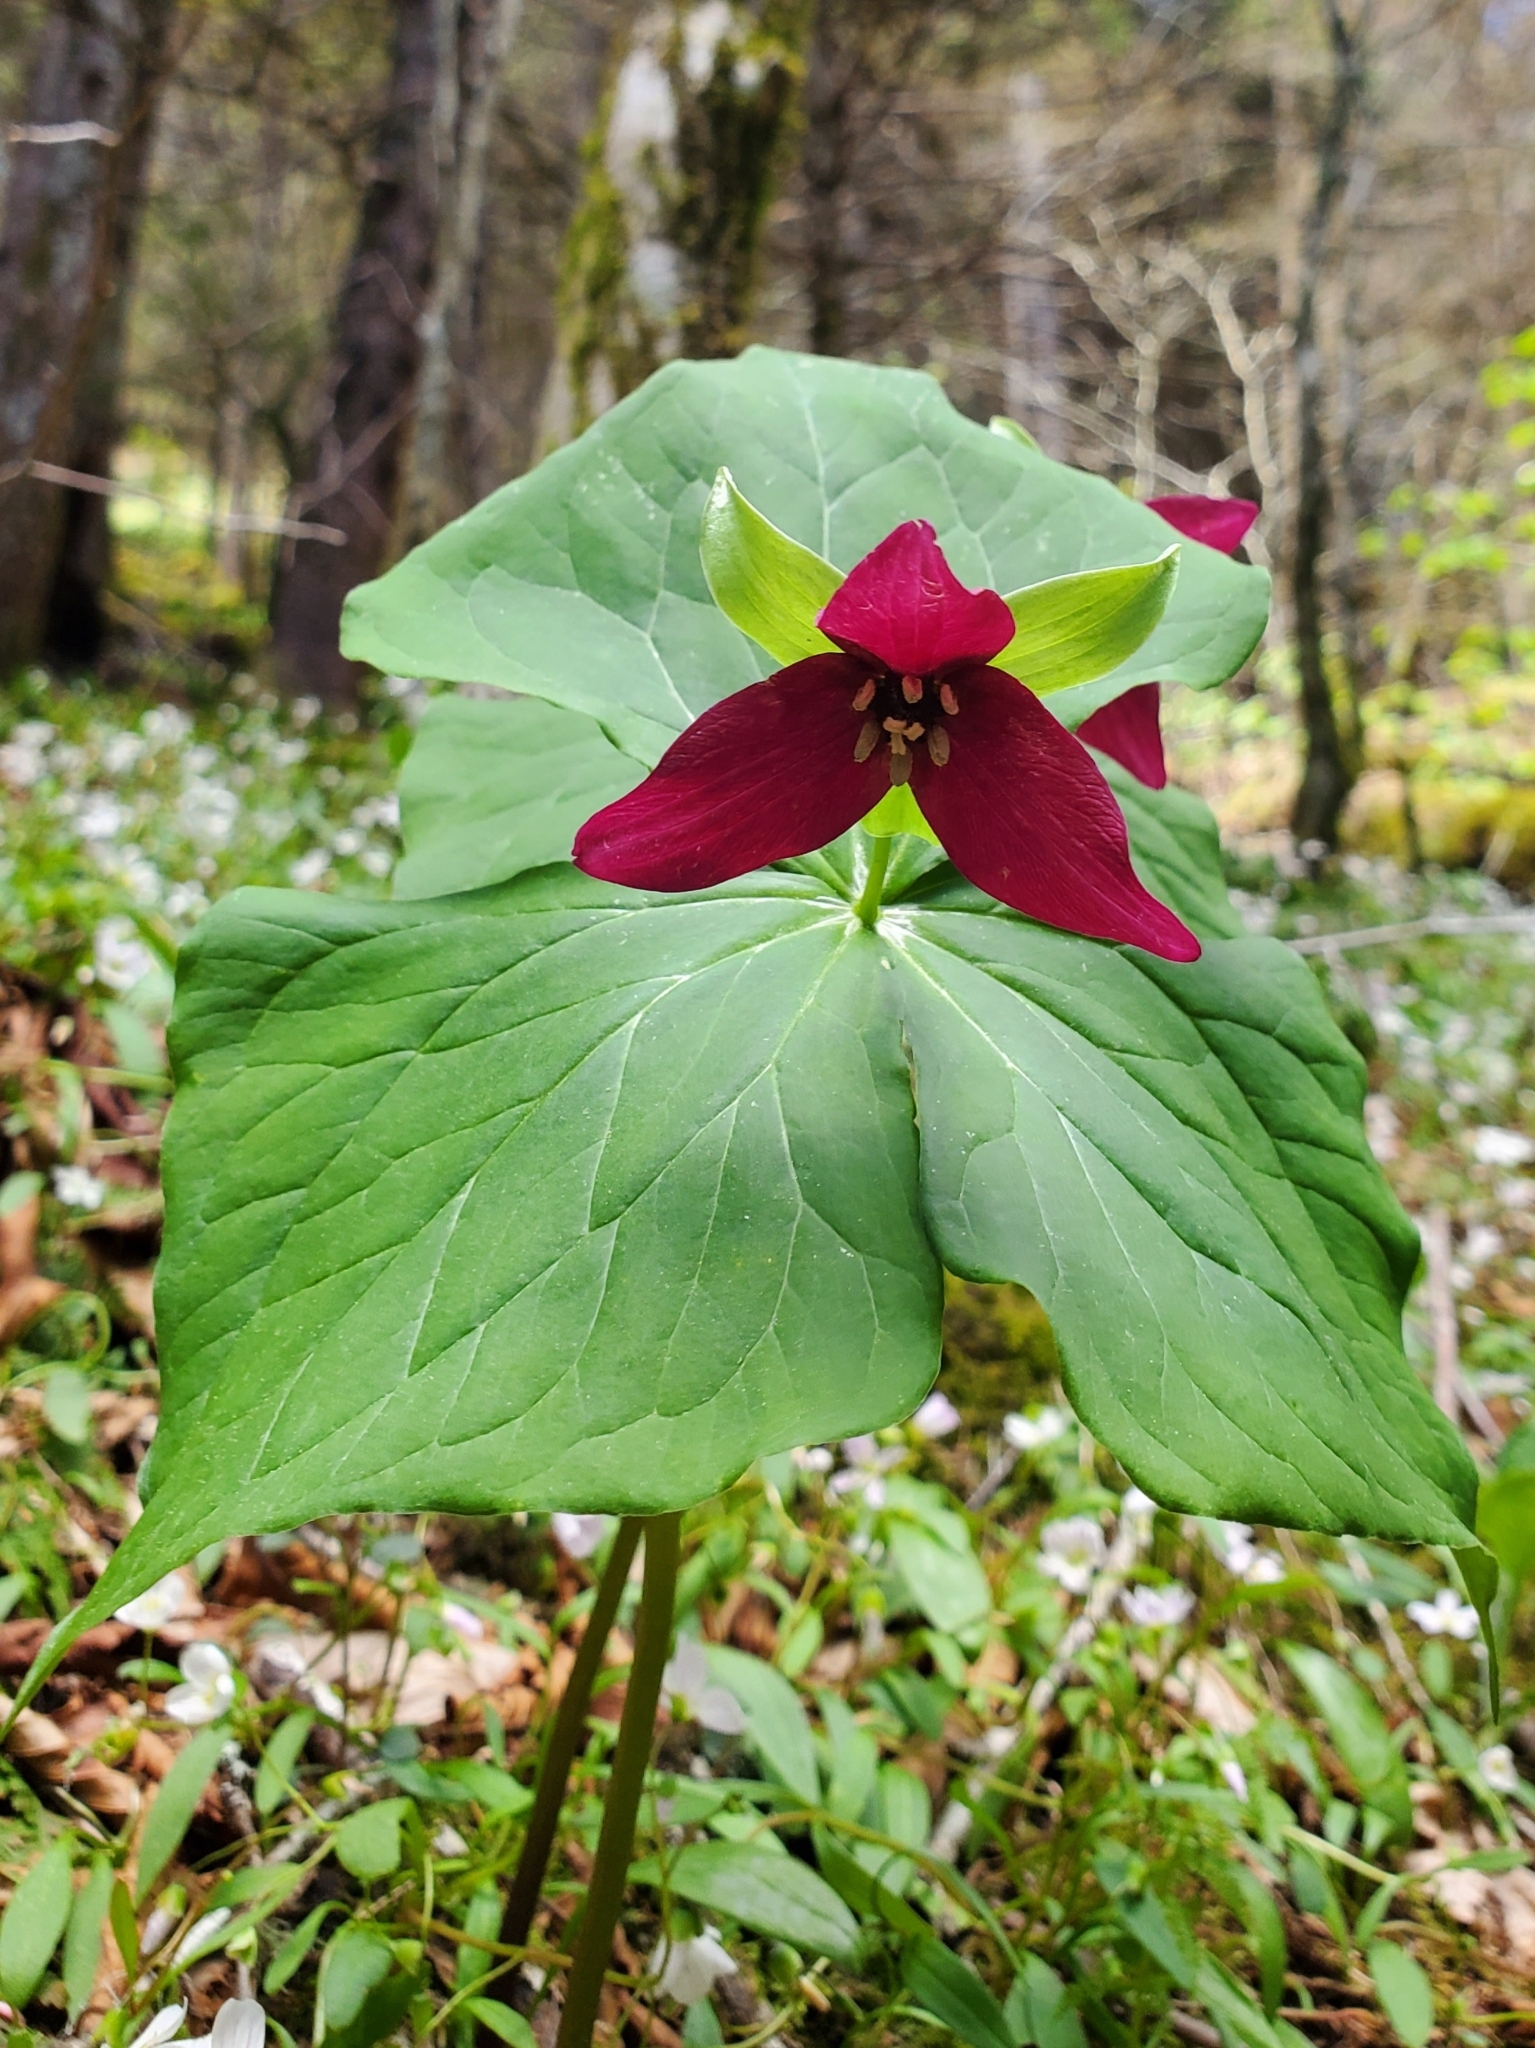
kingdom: Plantae
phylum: Tracheophyta
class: Liliopsida
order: Liliales
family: Melanthiaceae
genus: Trillium
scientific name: Trillium erectum
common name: Purple trillium
